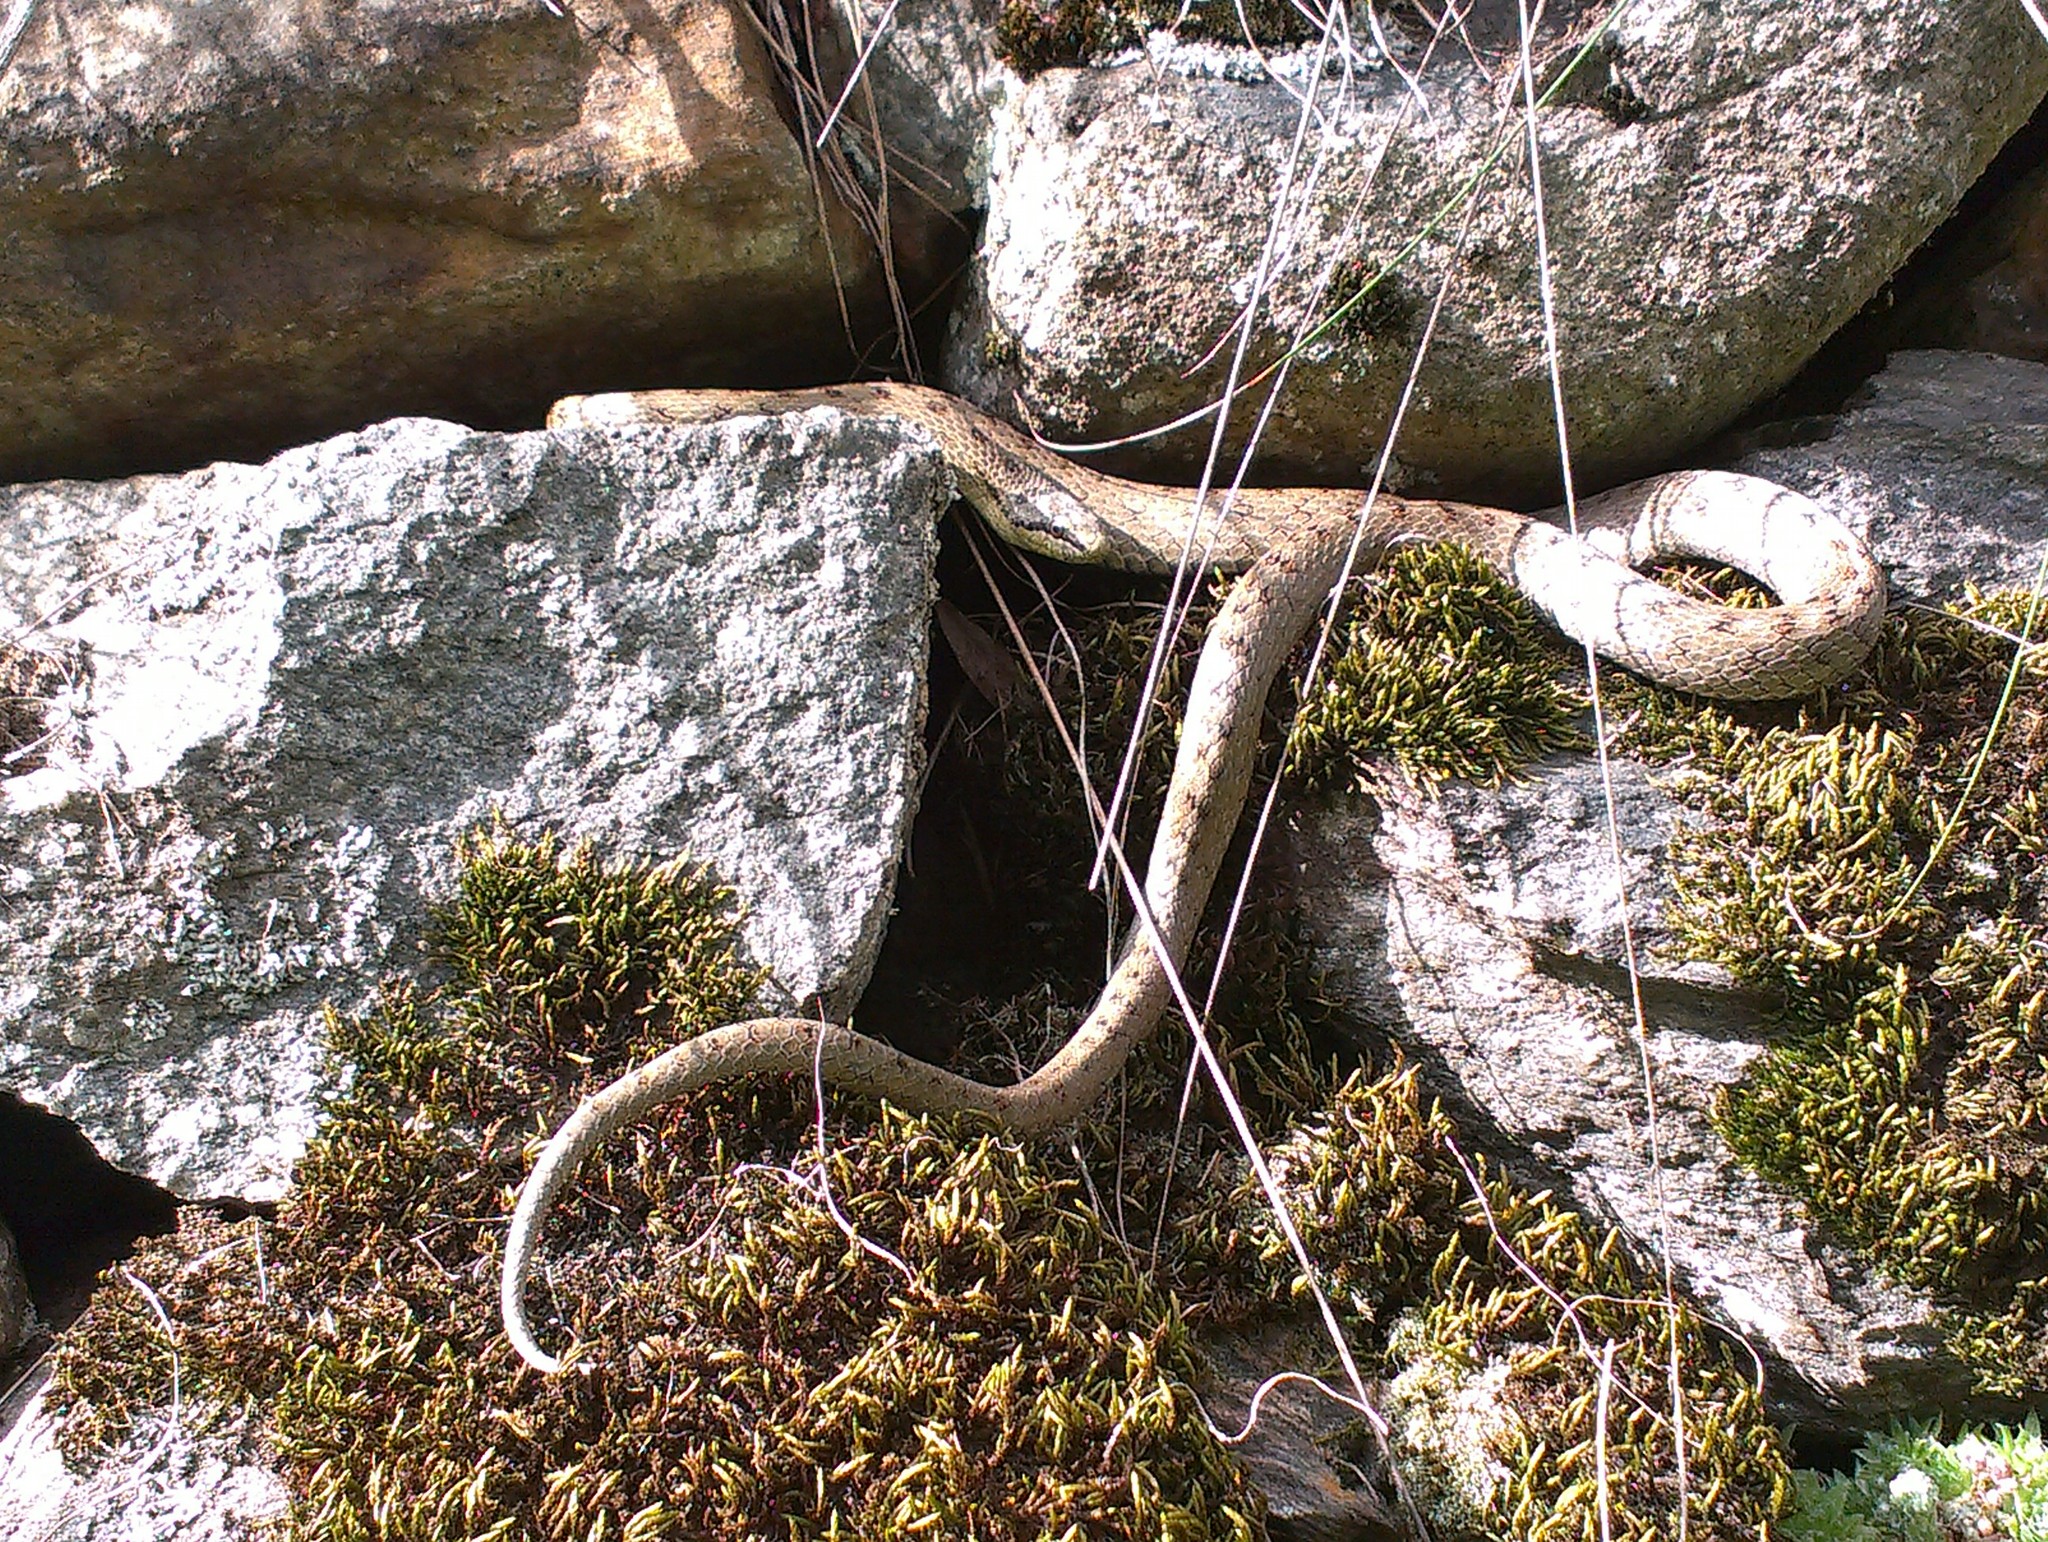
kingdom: Animalia
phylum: Chordata
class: Squamata
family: Colubridae
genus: Coronella
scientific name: Coronella austriaca
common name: Smooth snake
